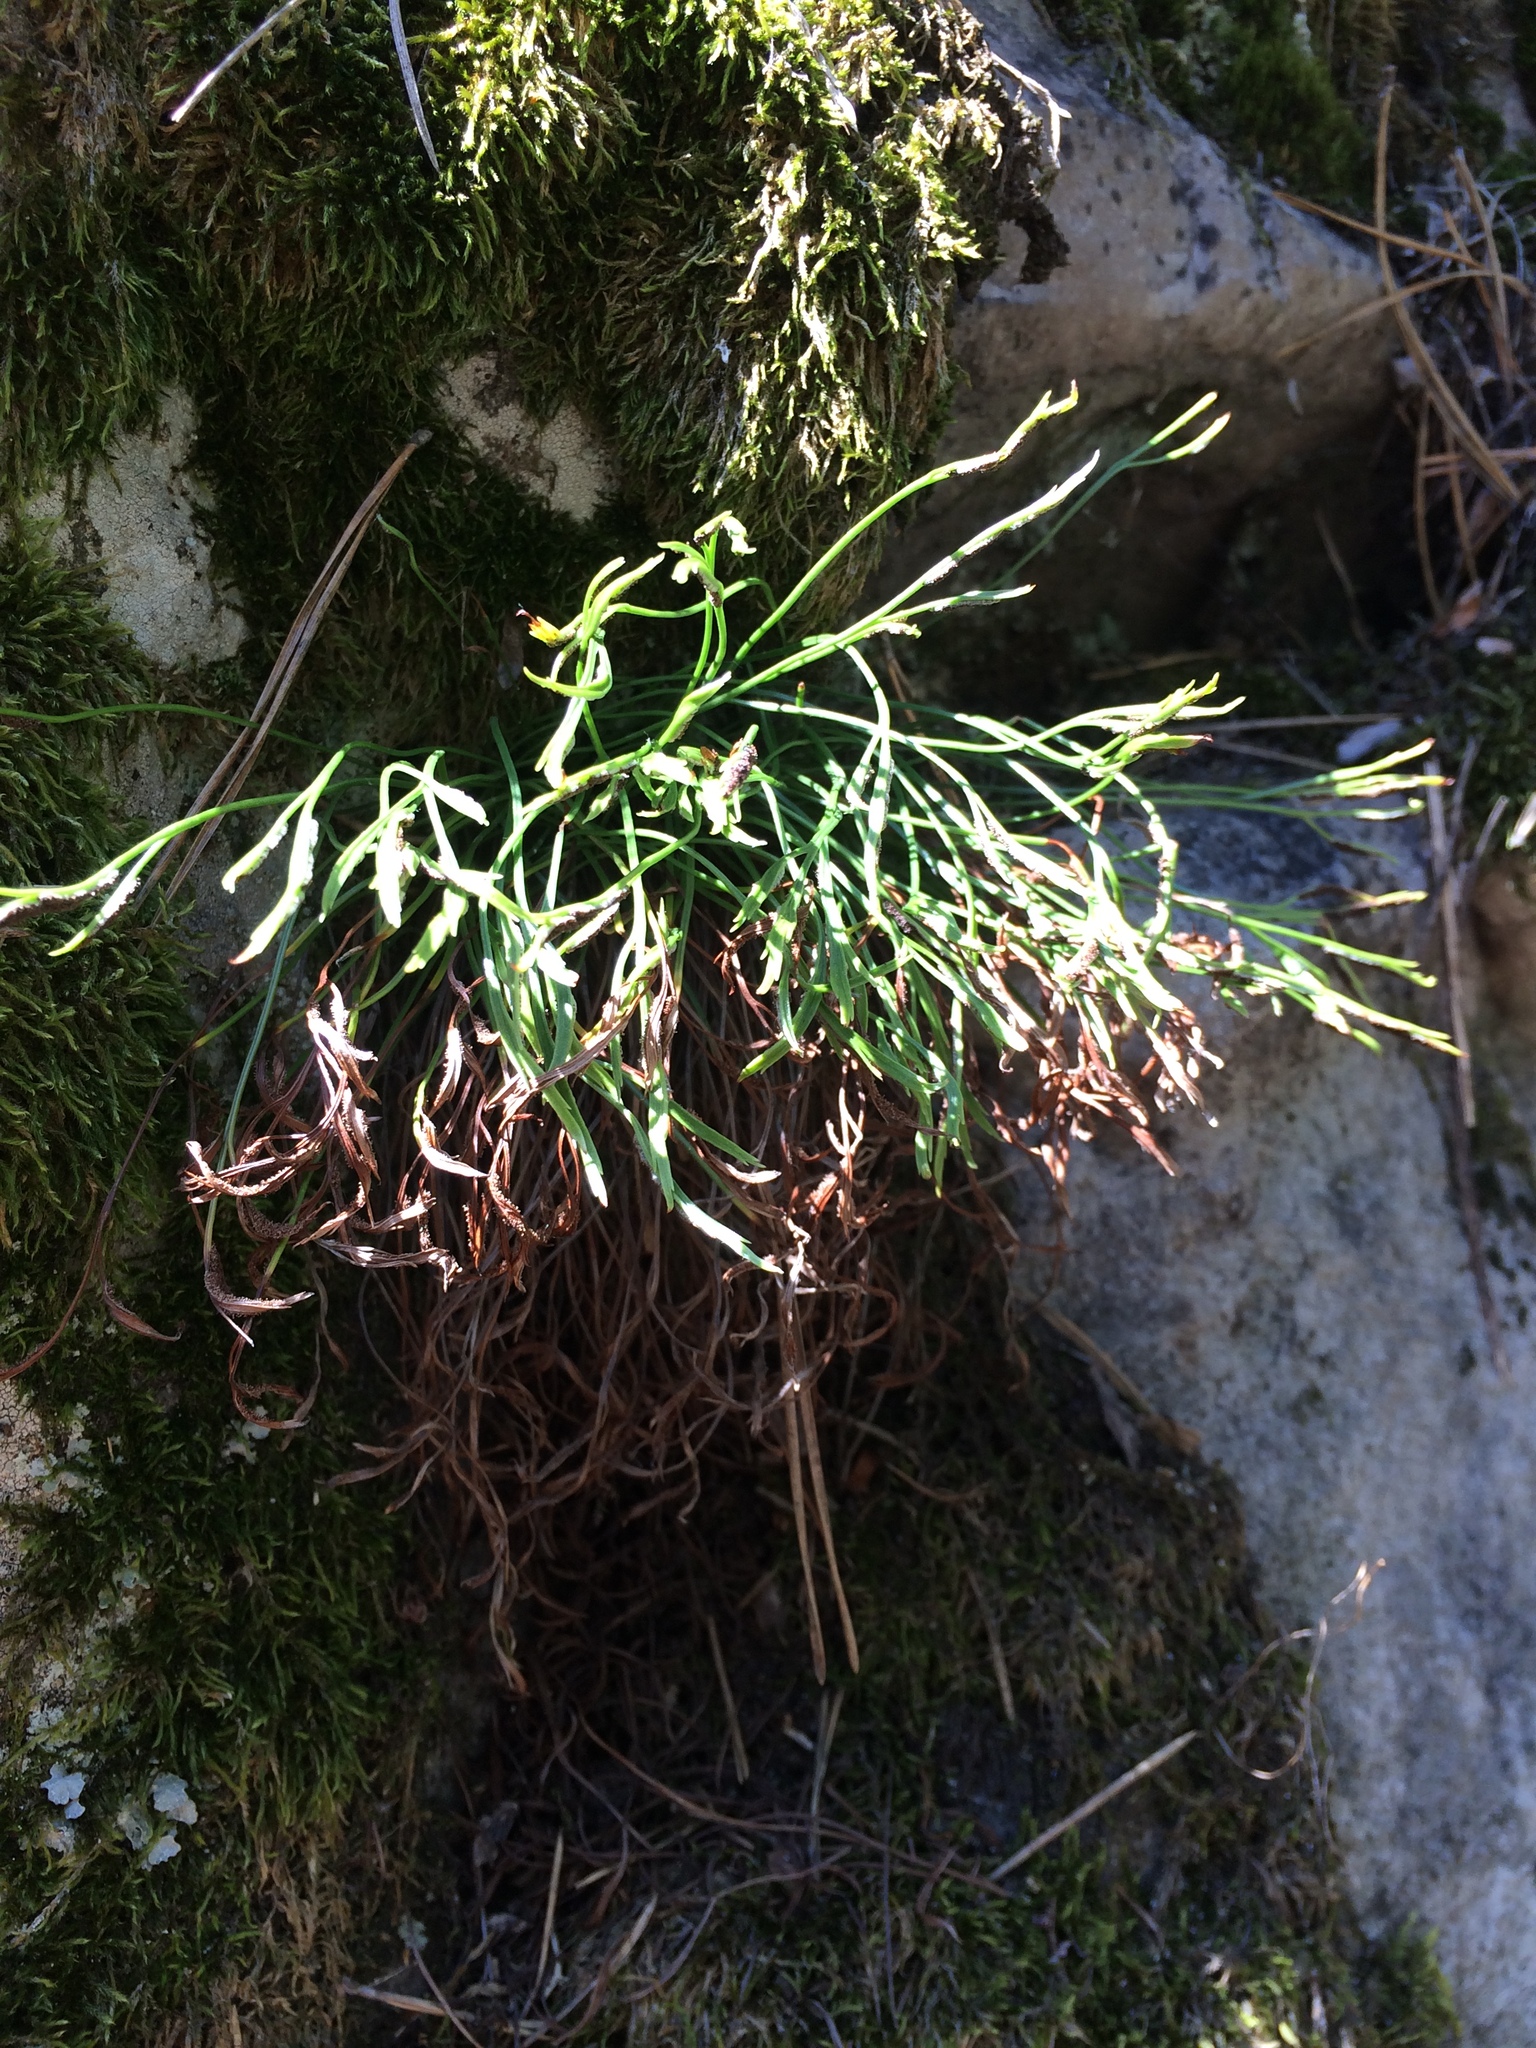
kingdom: Plantae
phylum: Tracheophyta
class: Polypodiopsida
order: Polypodiales
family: Aspleniaceae
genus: Asplenium
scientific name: Asplenium septentrionale
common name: Forked spleenwort
